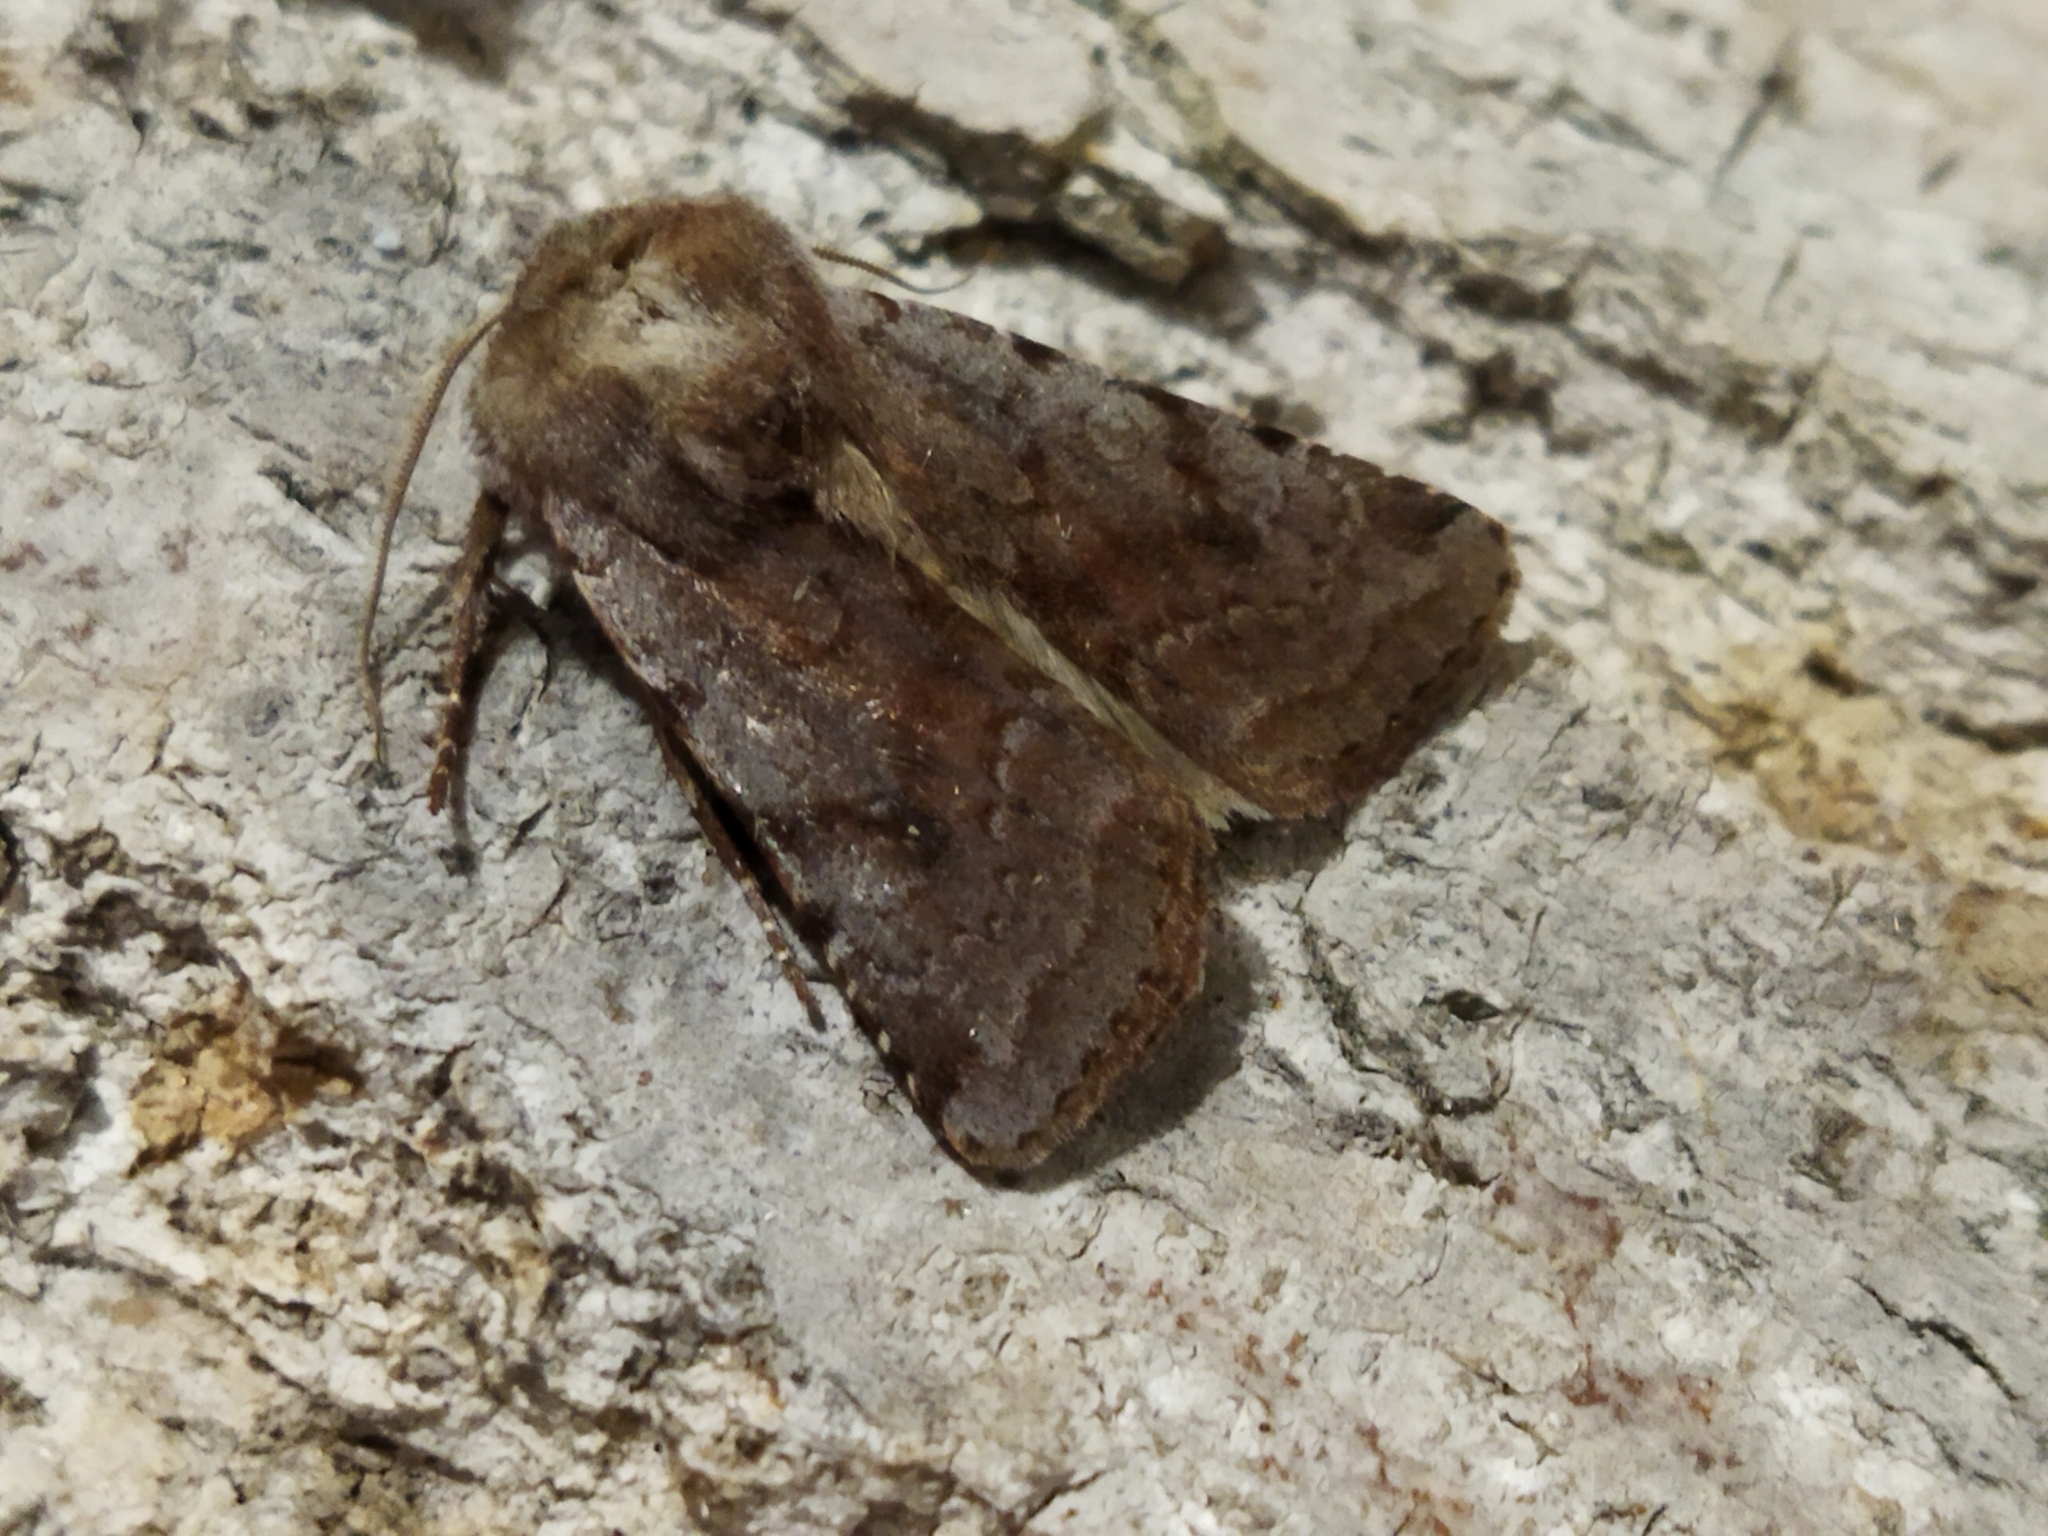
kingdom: Animalia
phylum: Arthropoda
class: Insecta
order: Lepidoptera
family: Noctuidae
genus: Cerastis
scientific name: Cerastis rubricosa
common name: Red chestnut
